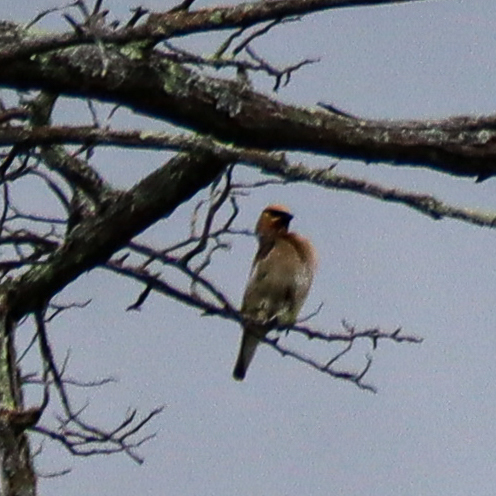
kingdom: Animalia
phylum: Chordata
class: Aves
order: Passeriformes
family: Bombycillidae
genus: Bombycilla
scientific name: Bombycilla cedrorum
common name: Cedar waxwing
